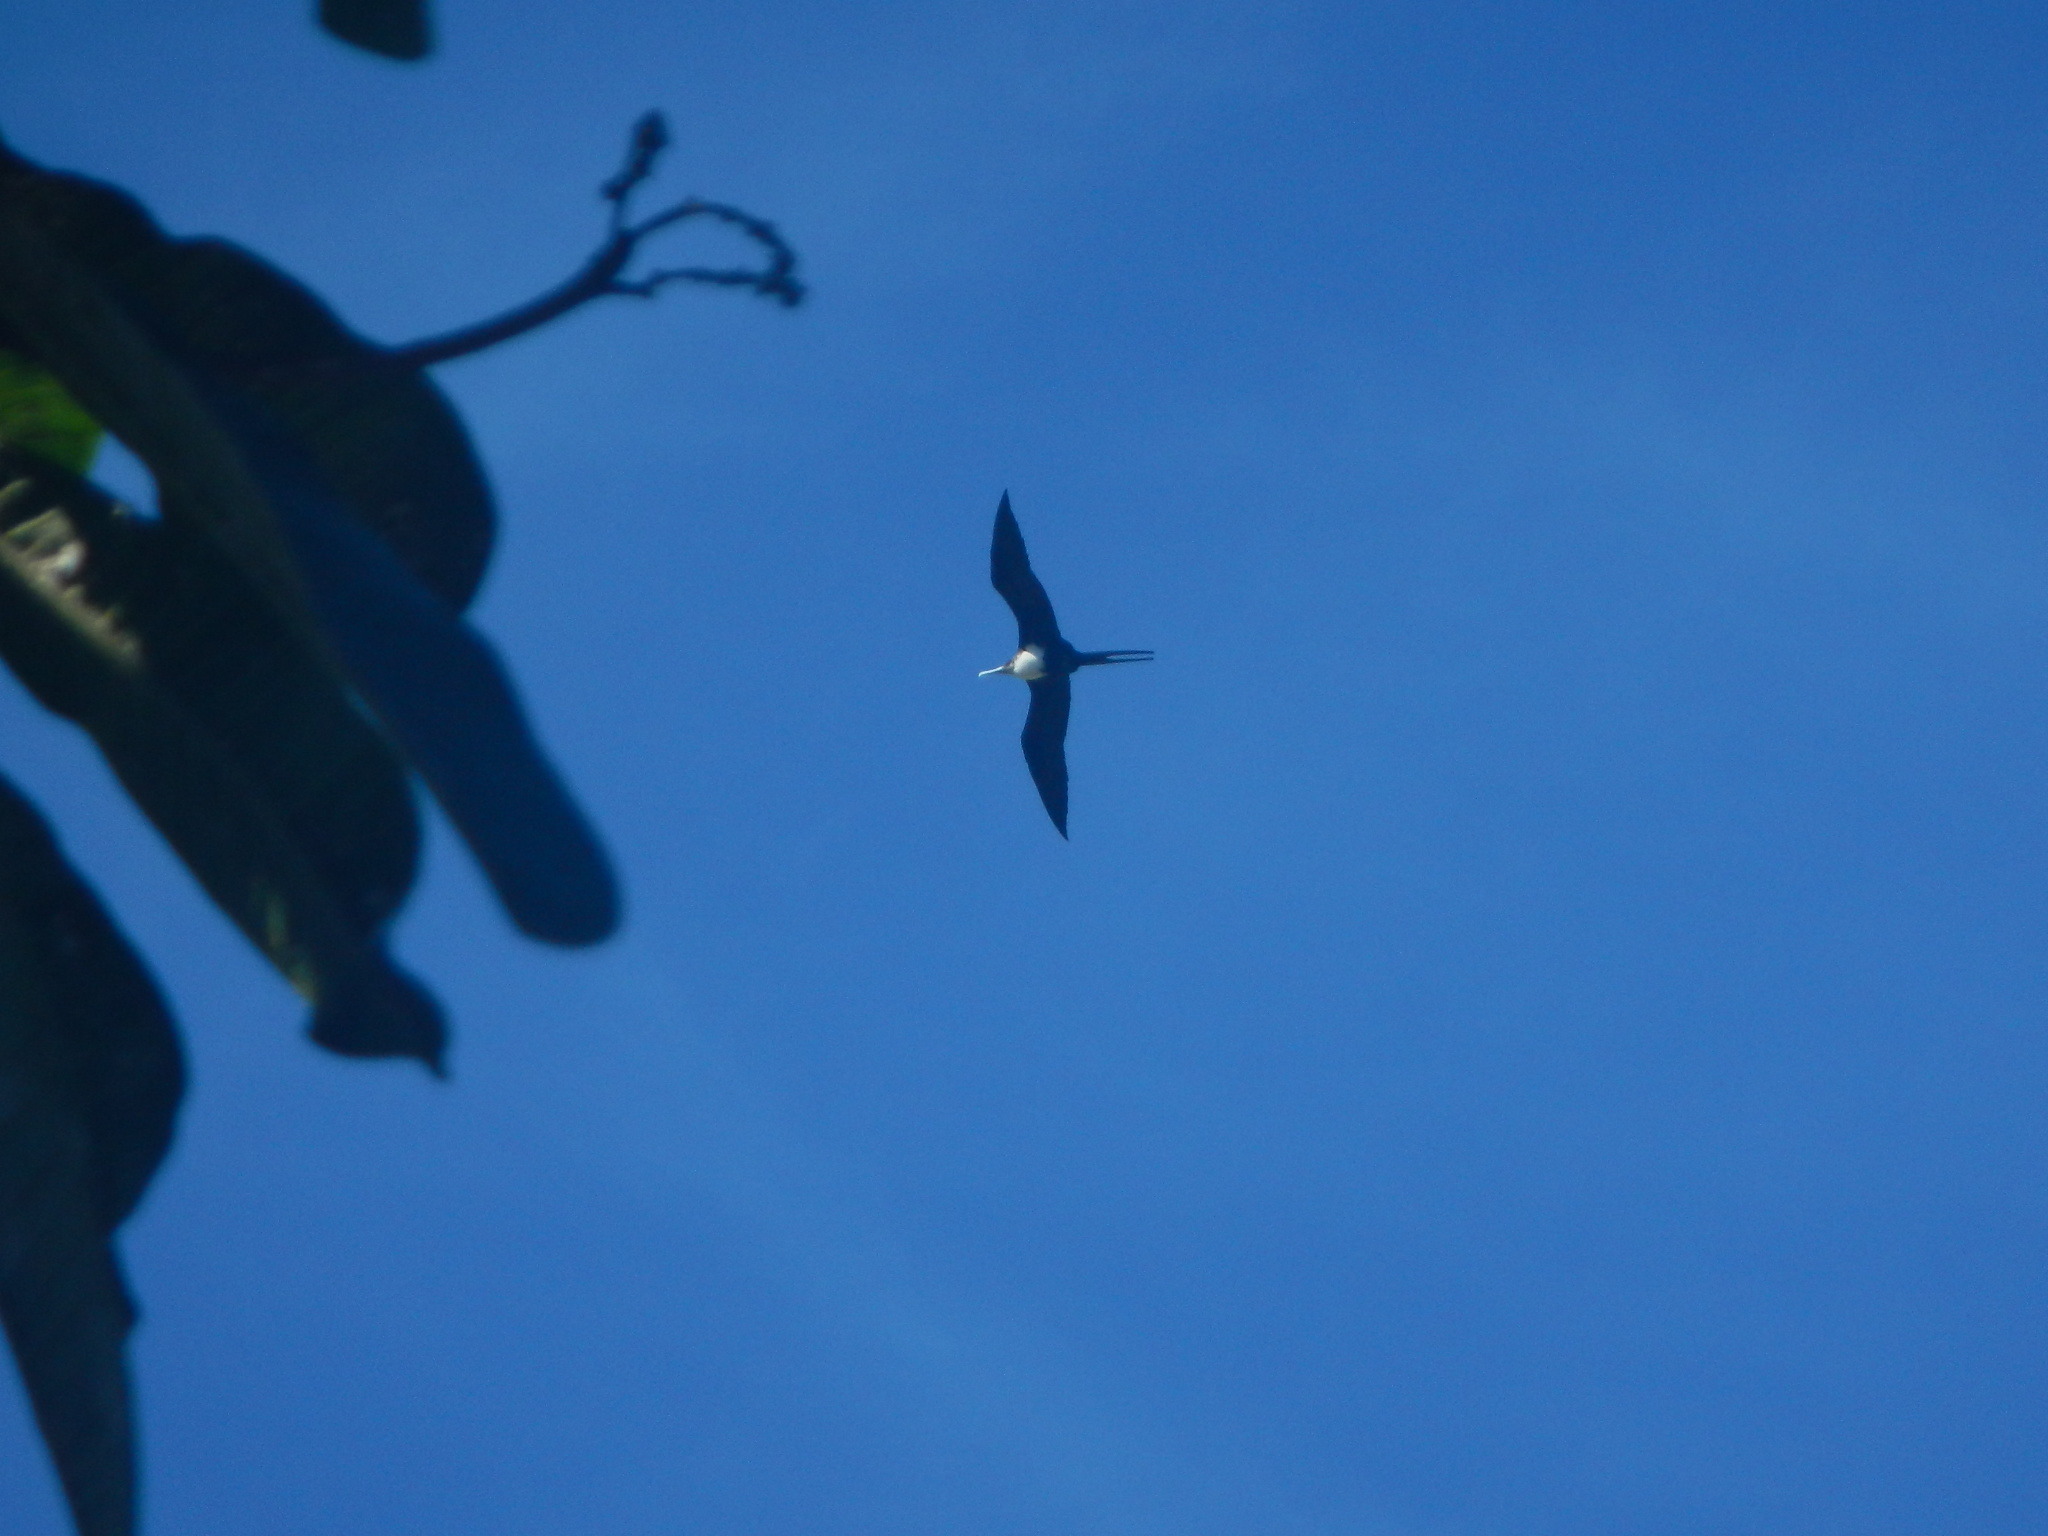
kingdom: Animalia
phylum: Chordata
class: Aves
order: Suliformes
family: Fregatidae
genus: Fregata
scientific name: Fregata minor
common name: Great frigatebird
